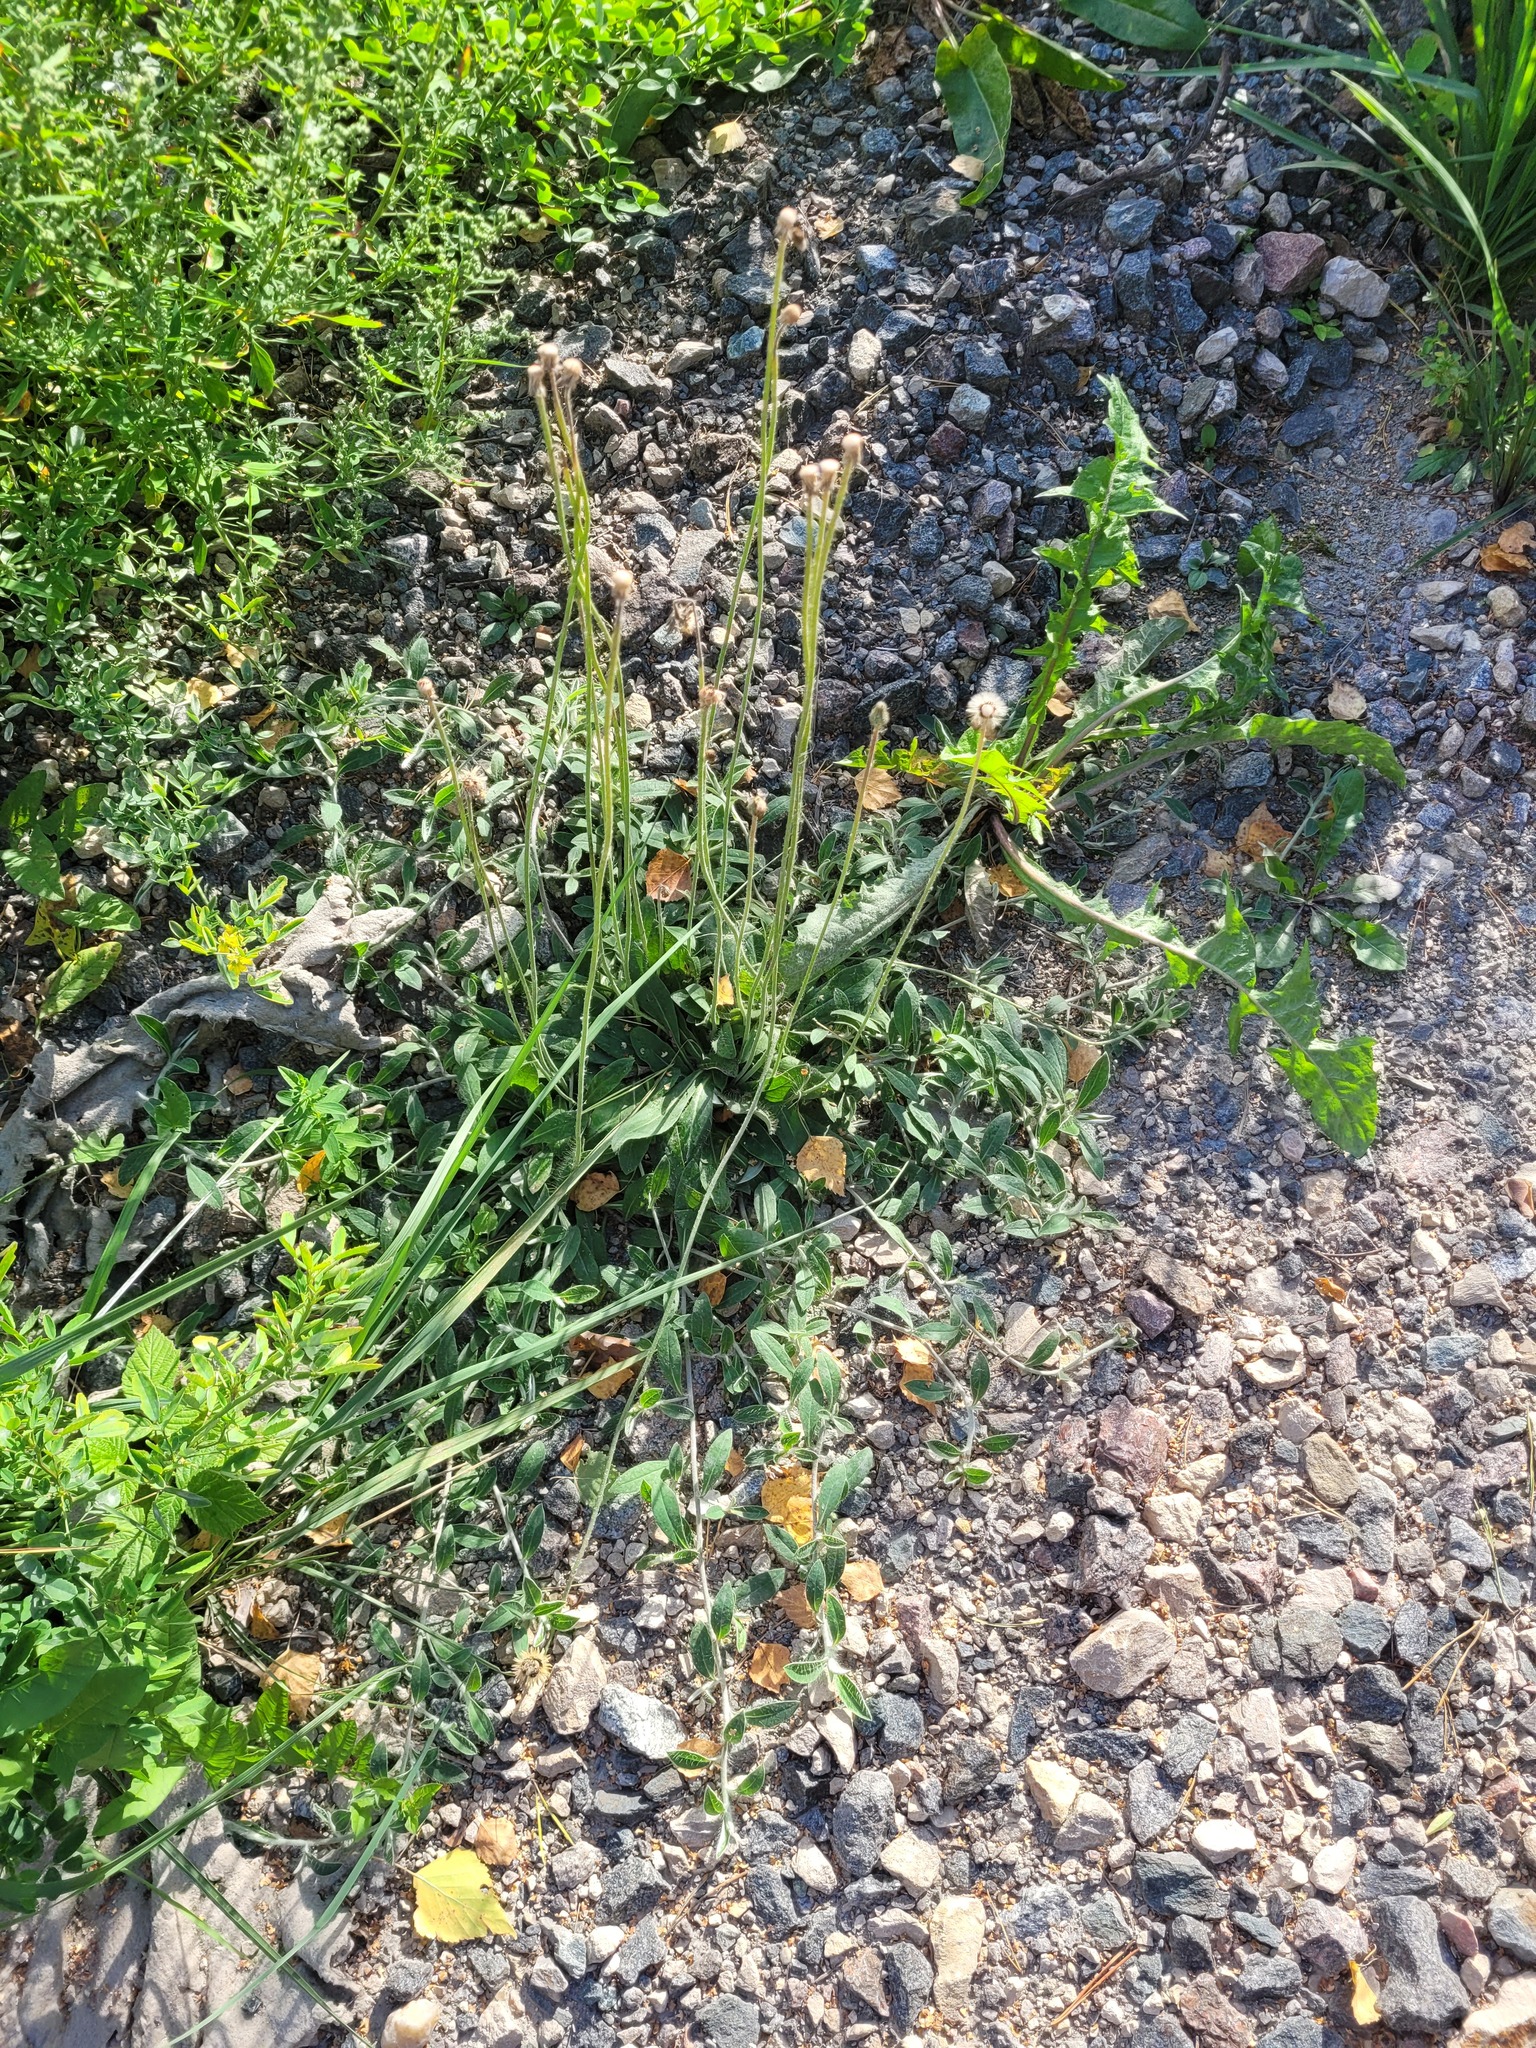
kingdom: Plantae
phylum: Tracheophyta
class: Magnoliopsida
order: Asterales
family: Asteraceae
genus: Pilosella
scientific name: Pilosella officinarum
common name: Mouse-ear hawkweed
